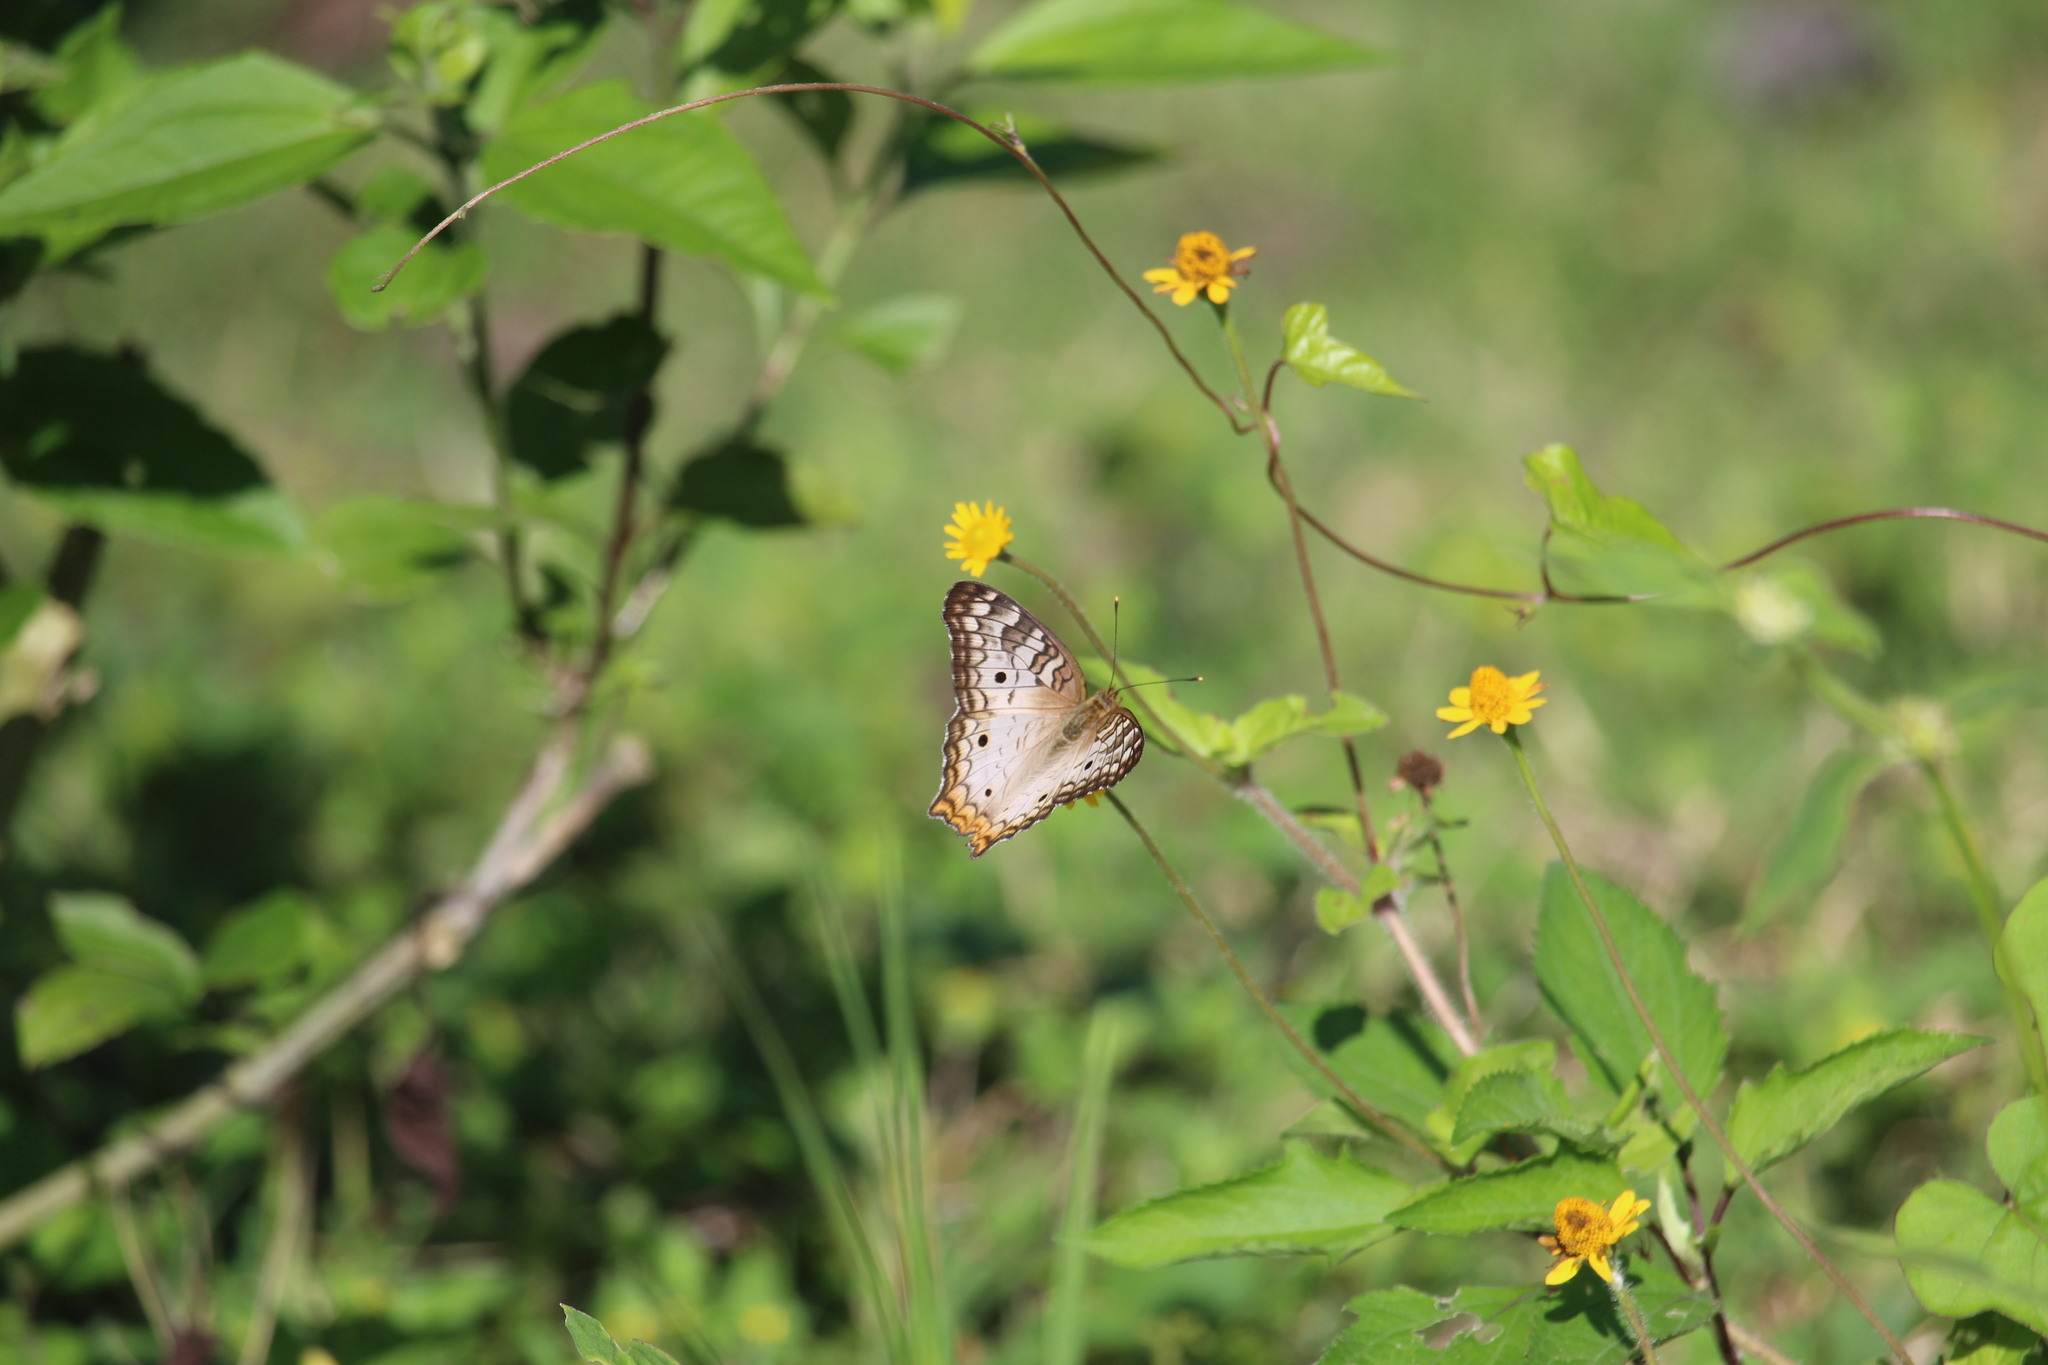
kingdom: Animalia
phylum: Arthropoda
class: Insecta
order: Lepidoptera
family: Nymphalidae
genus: Anartia
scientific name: Anartia jatrophae
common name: White peacock
